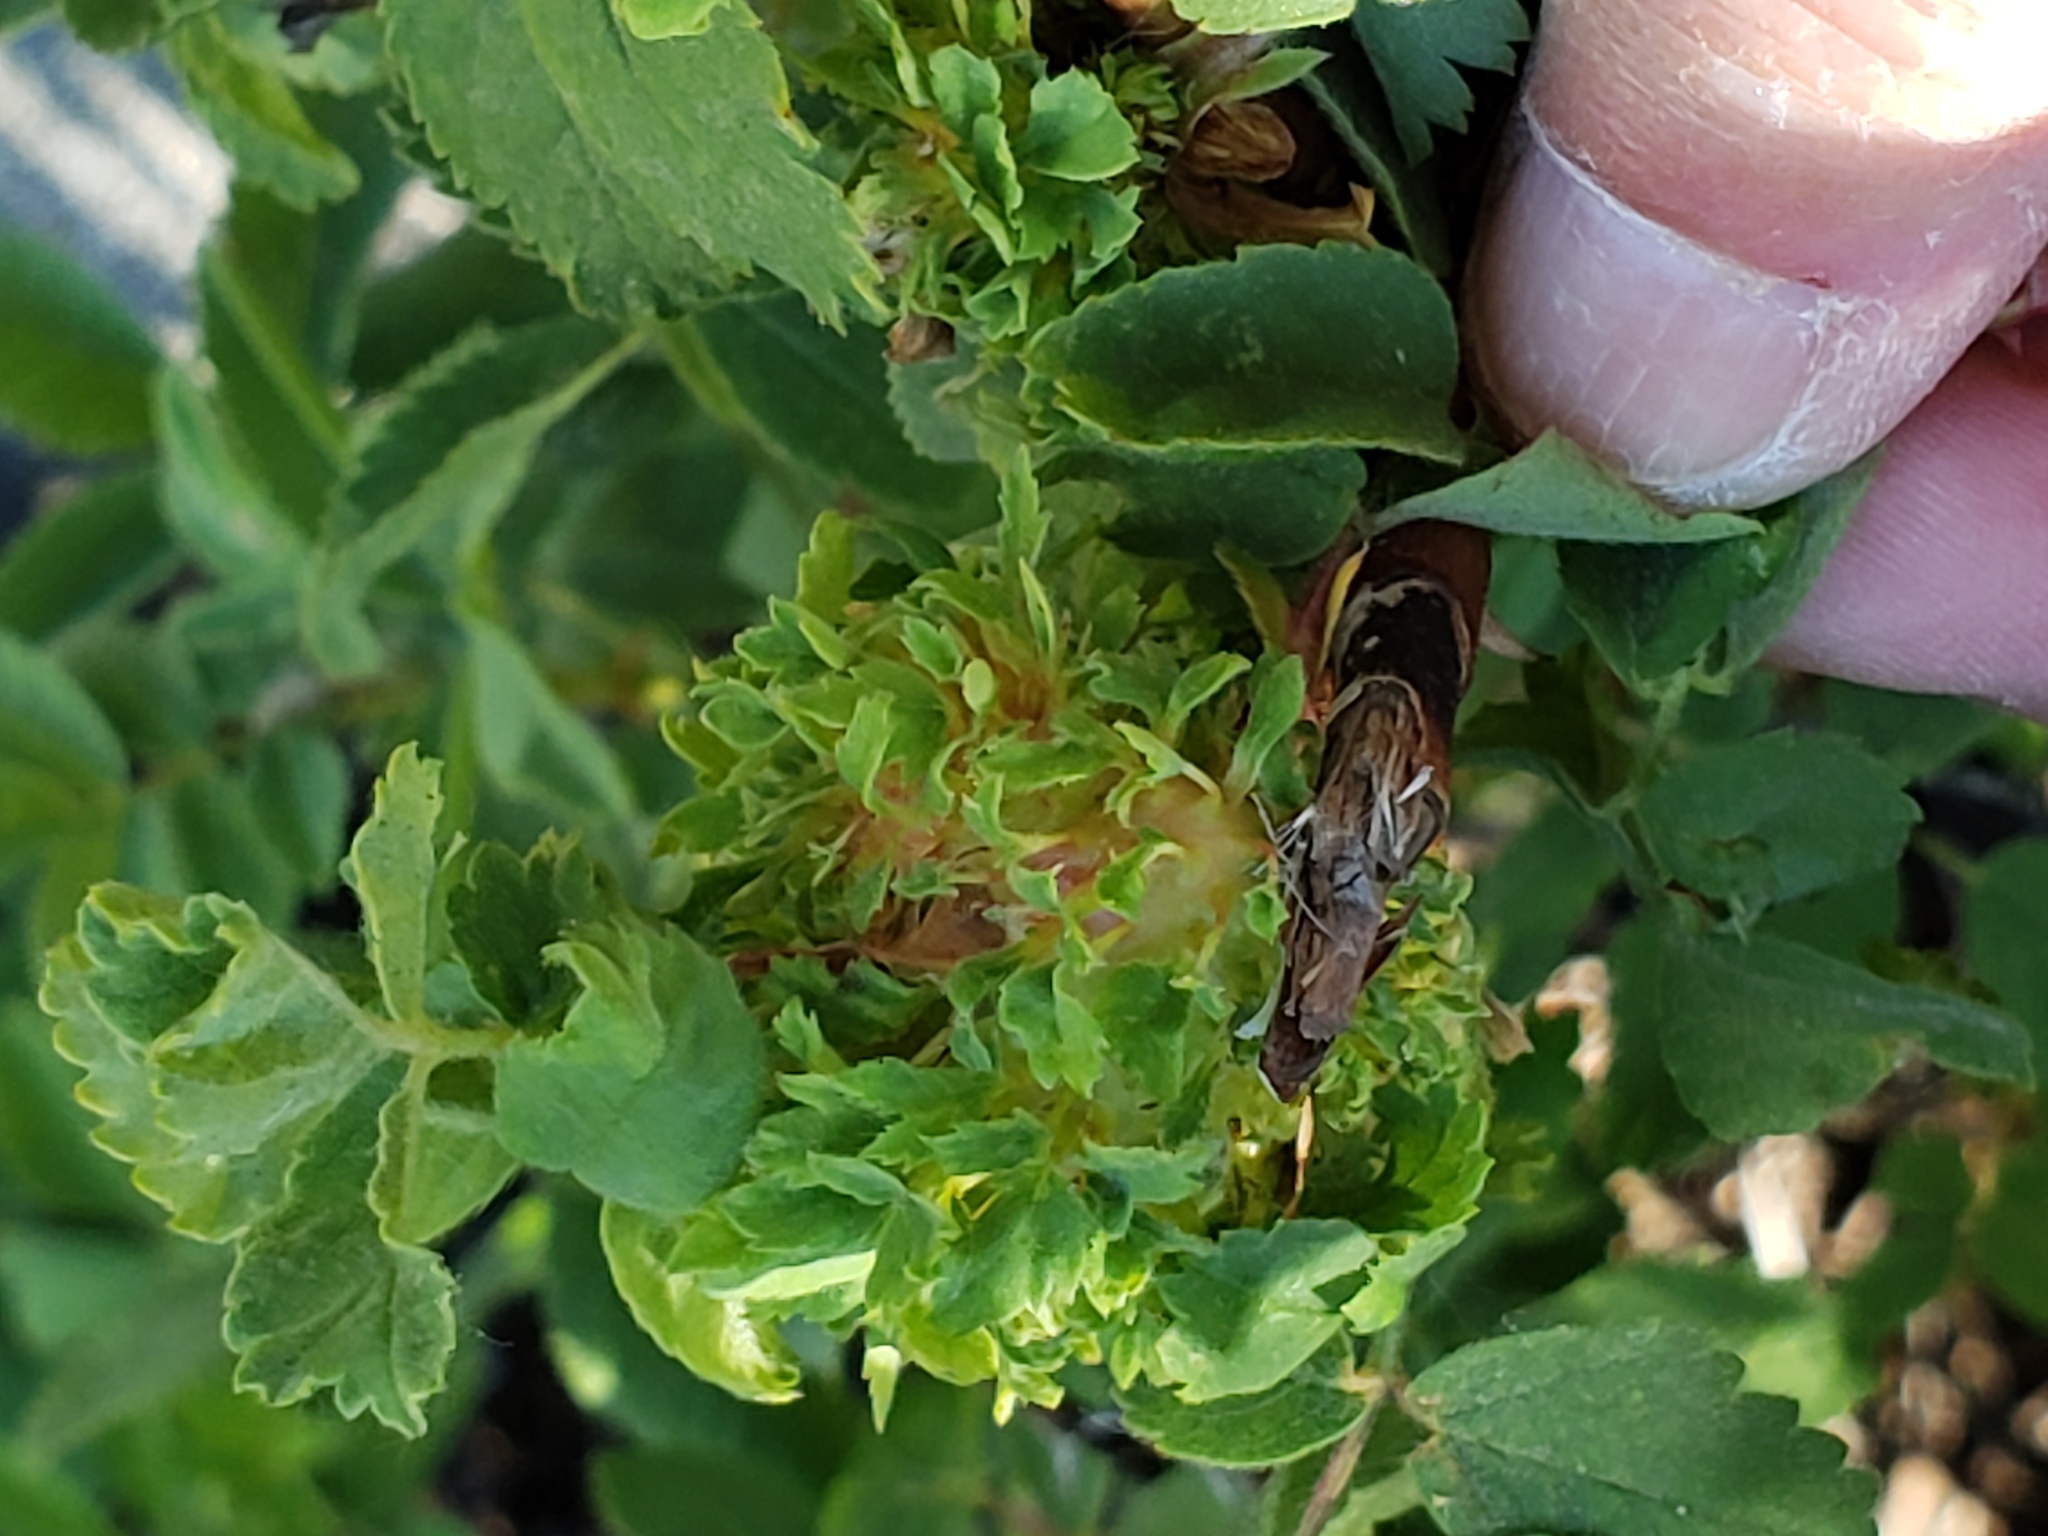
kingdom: Animalia
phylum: Arthropoda
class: Insecta
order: Hymenoptera
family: Cynipidae
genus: Diplolepis
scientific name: Diplolepis californica
